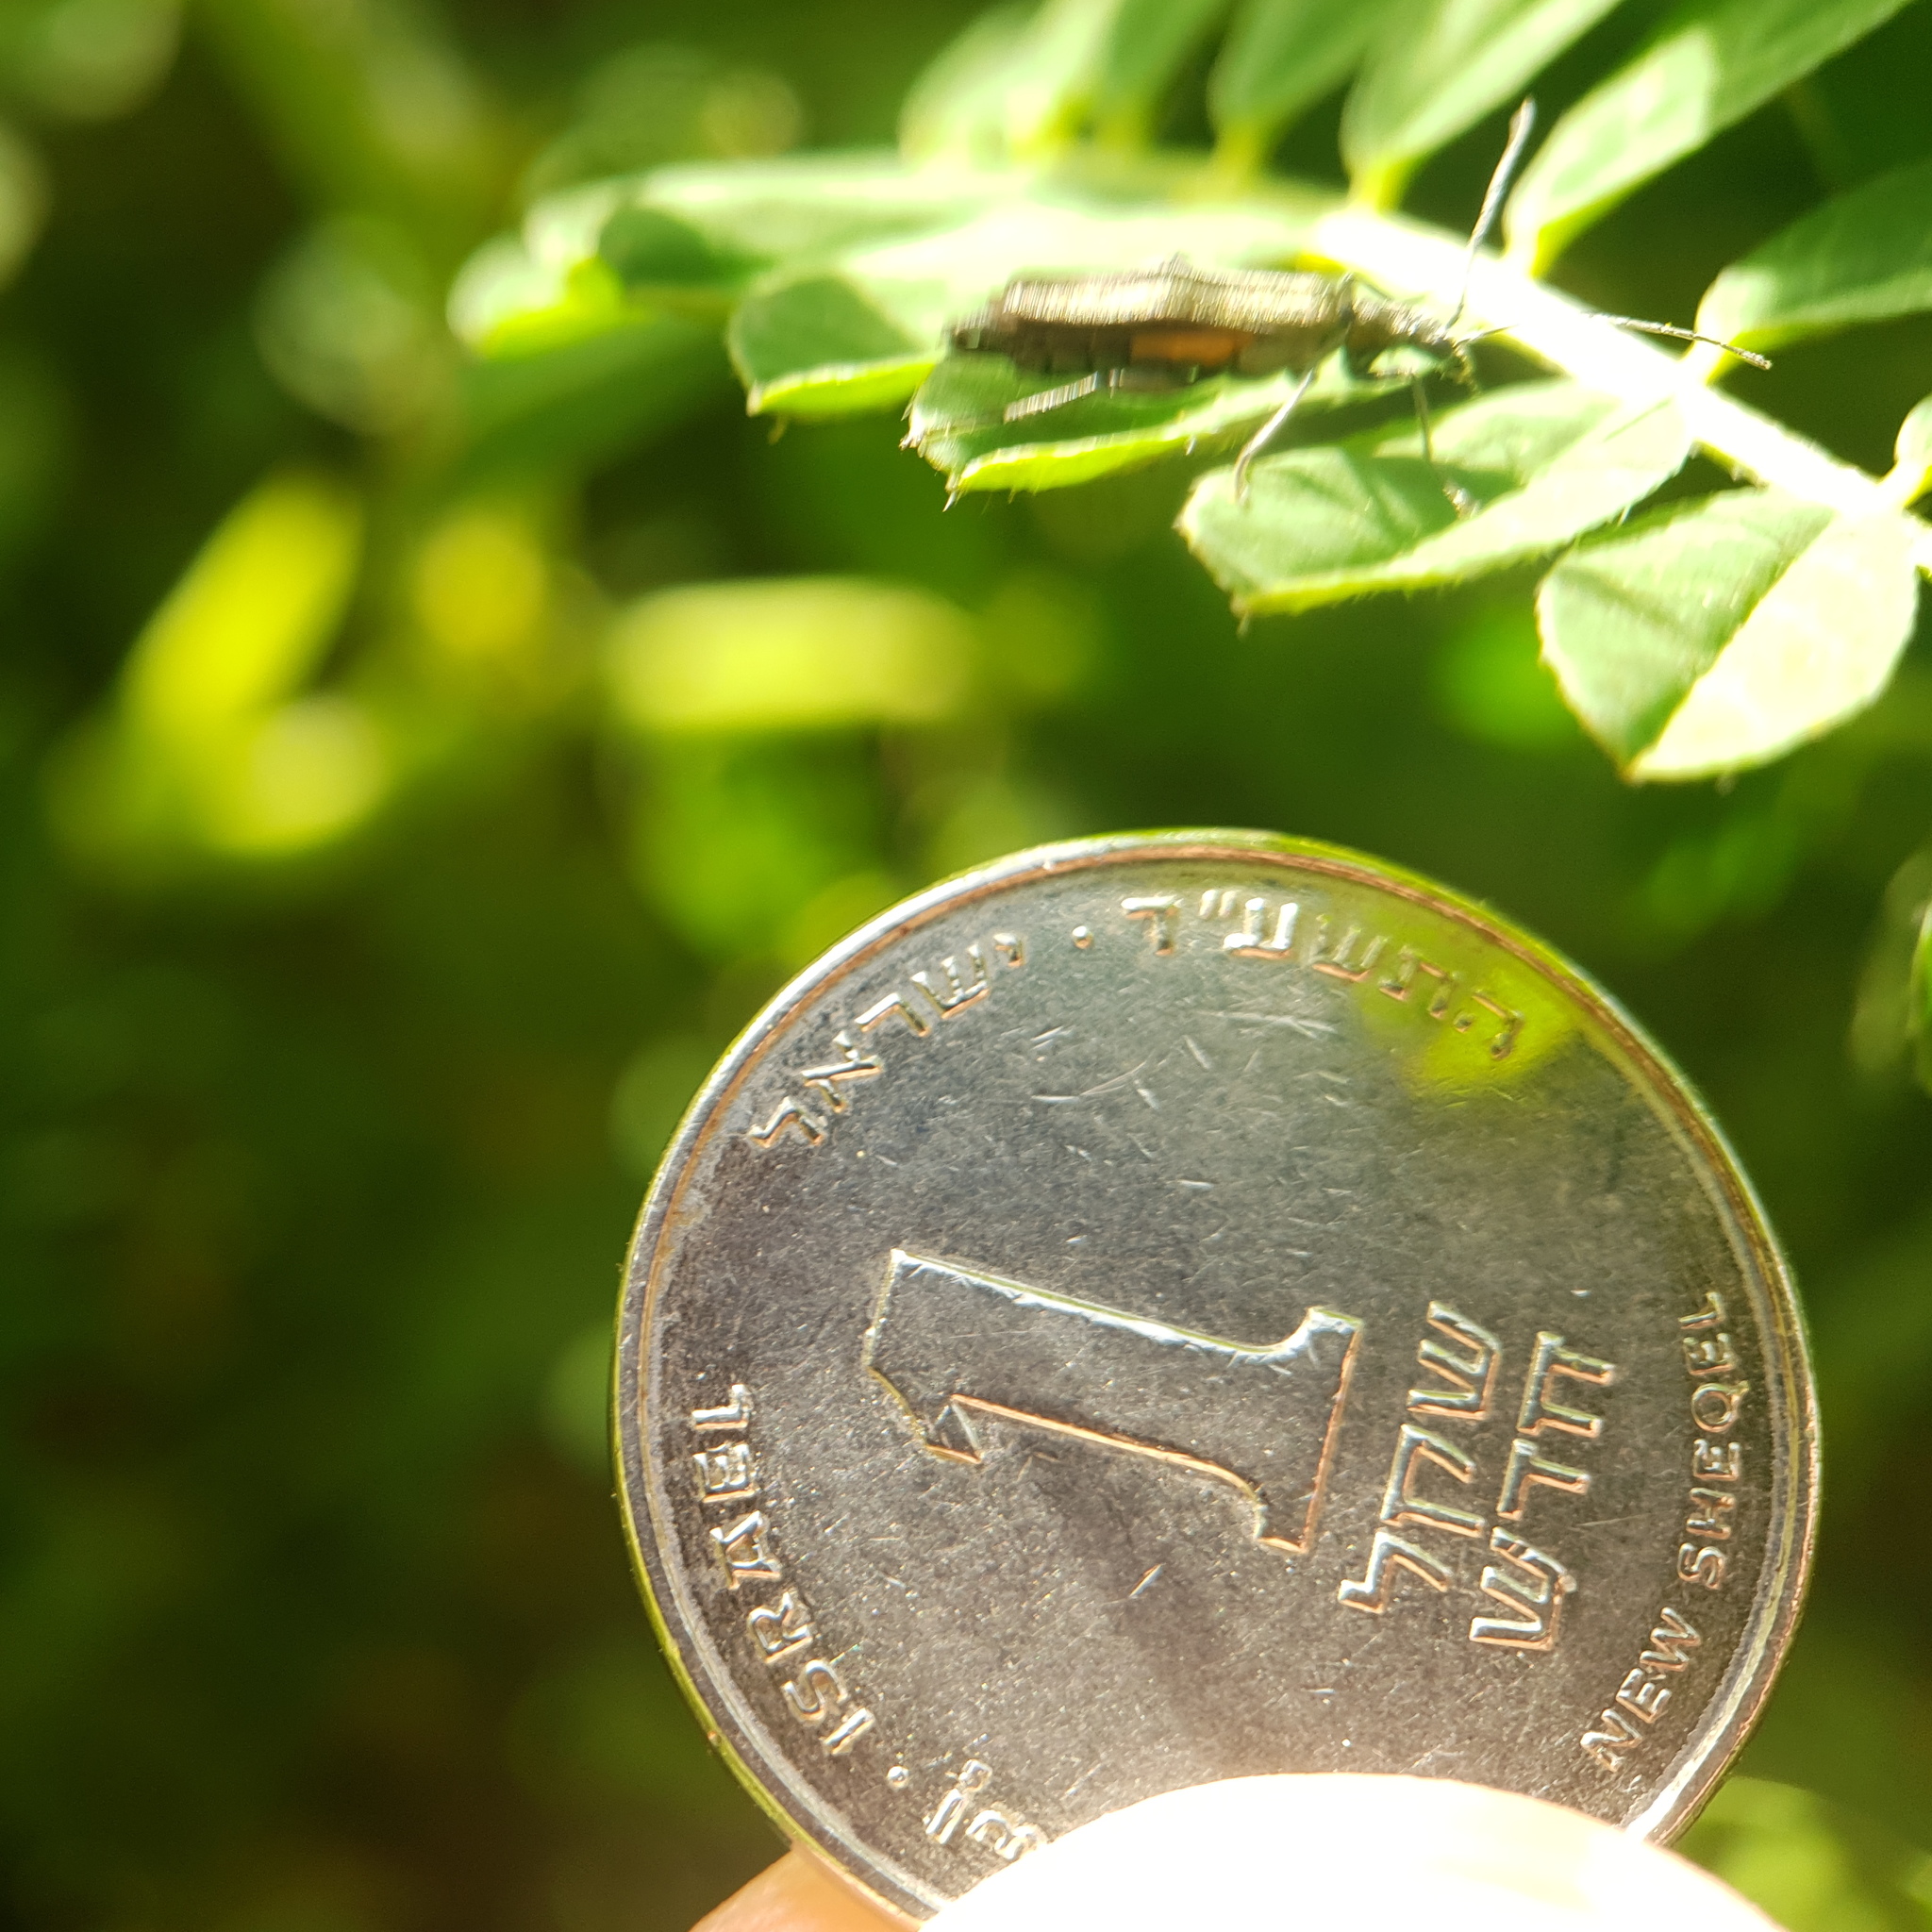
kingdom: Animalia
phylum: Arthropoda
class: Insecta
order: Coleoptera
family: Oedemeridae
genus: Oedemera
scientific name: Oedemera virescens
